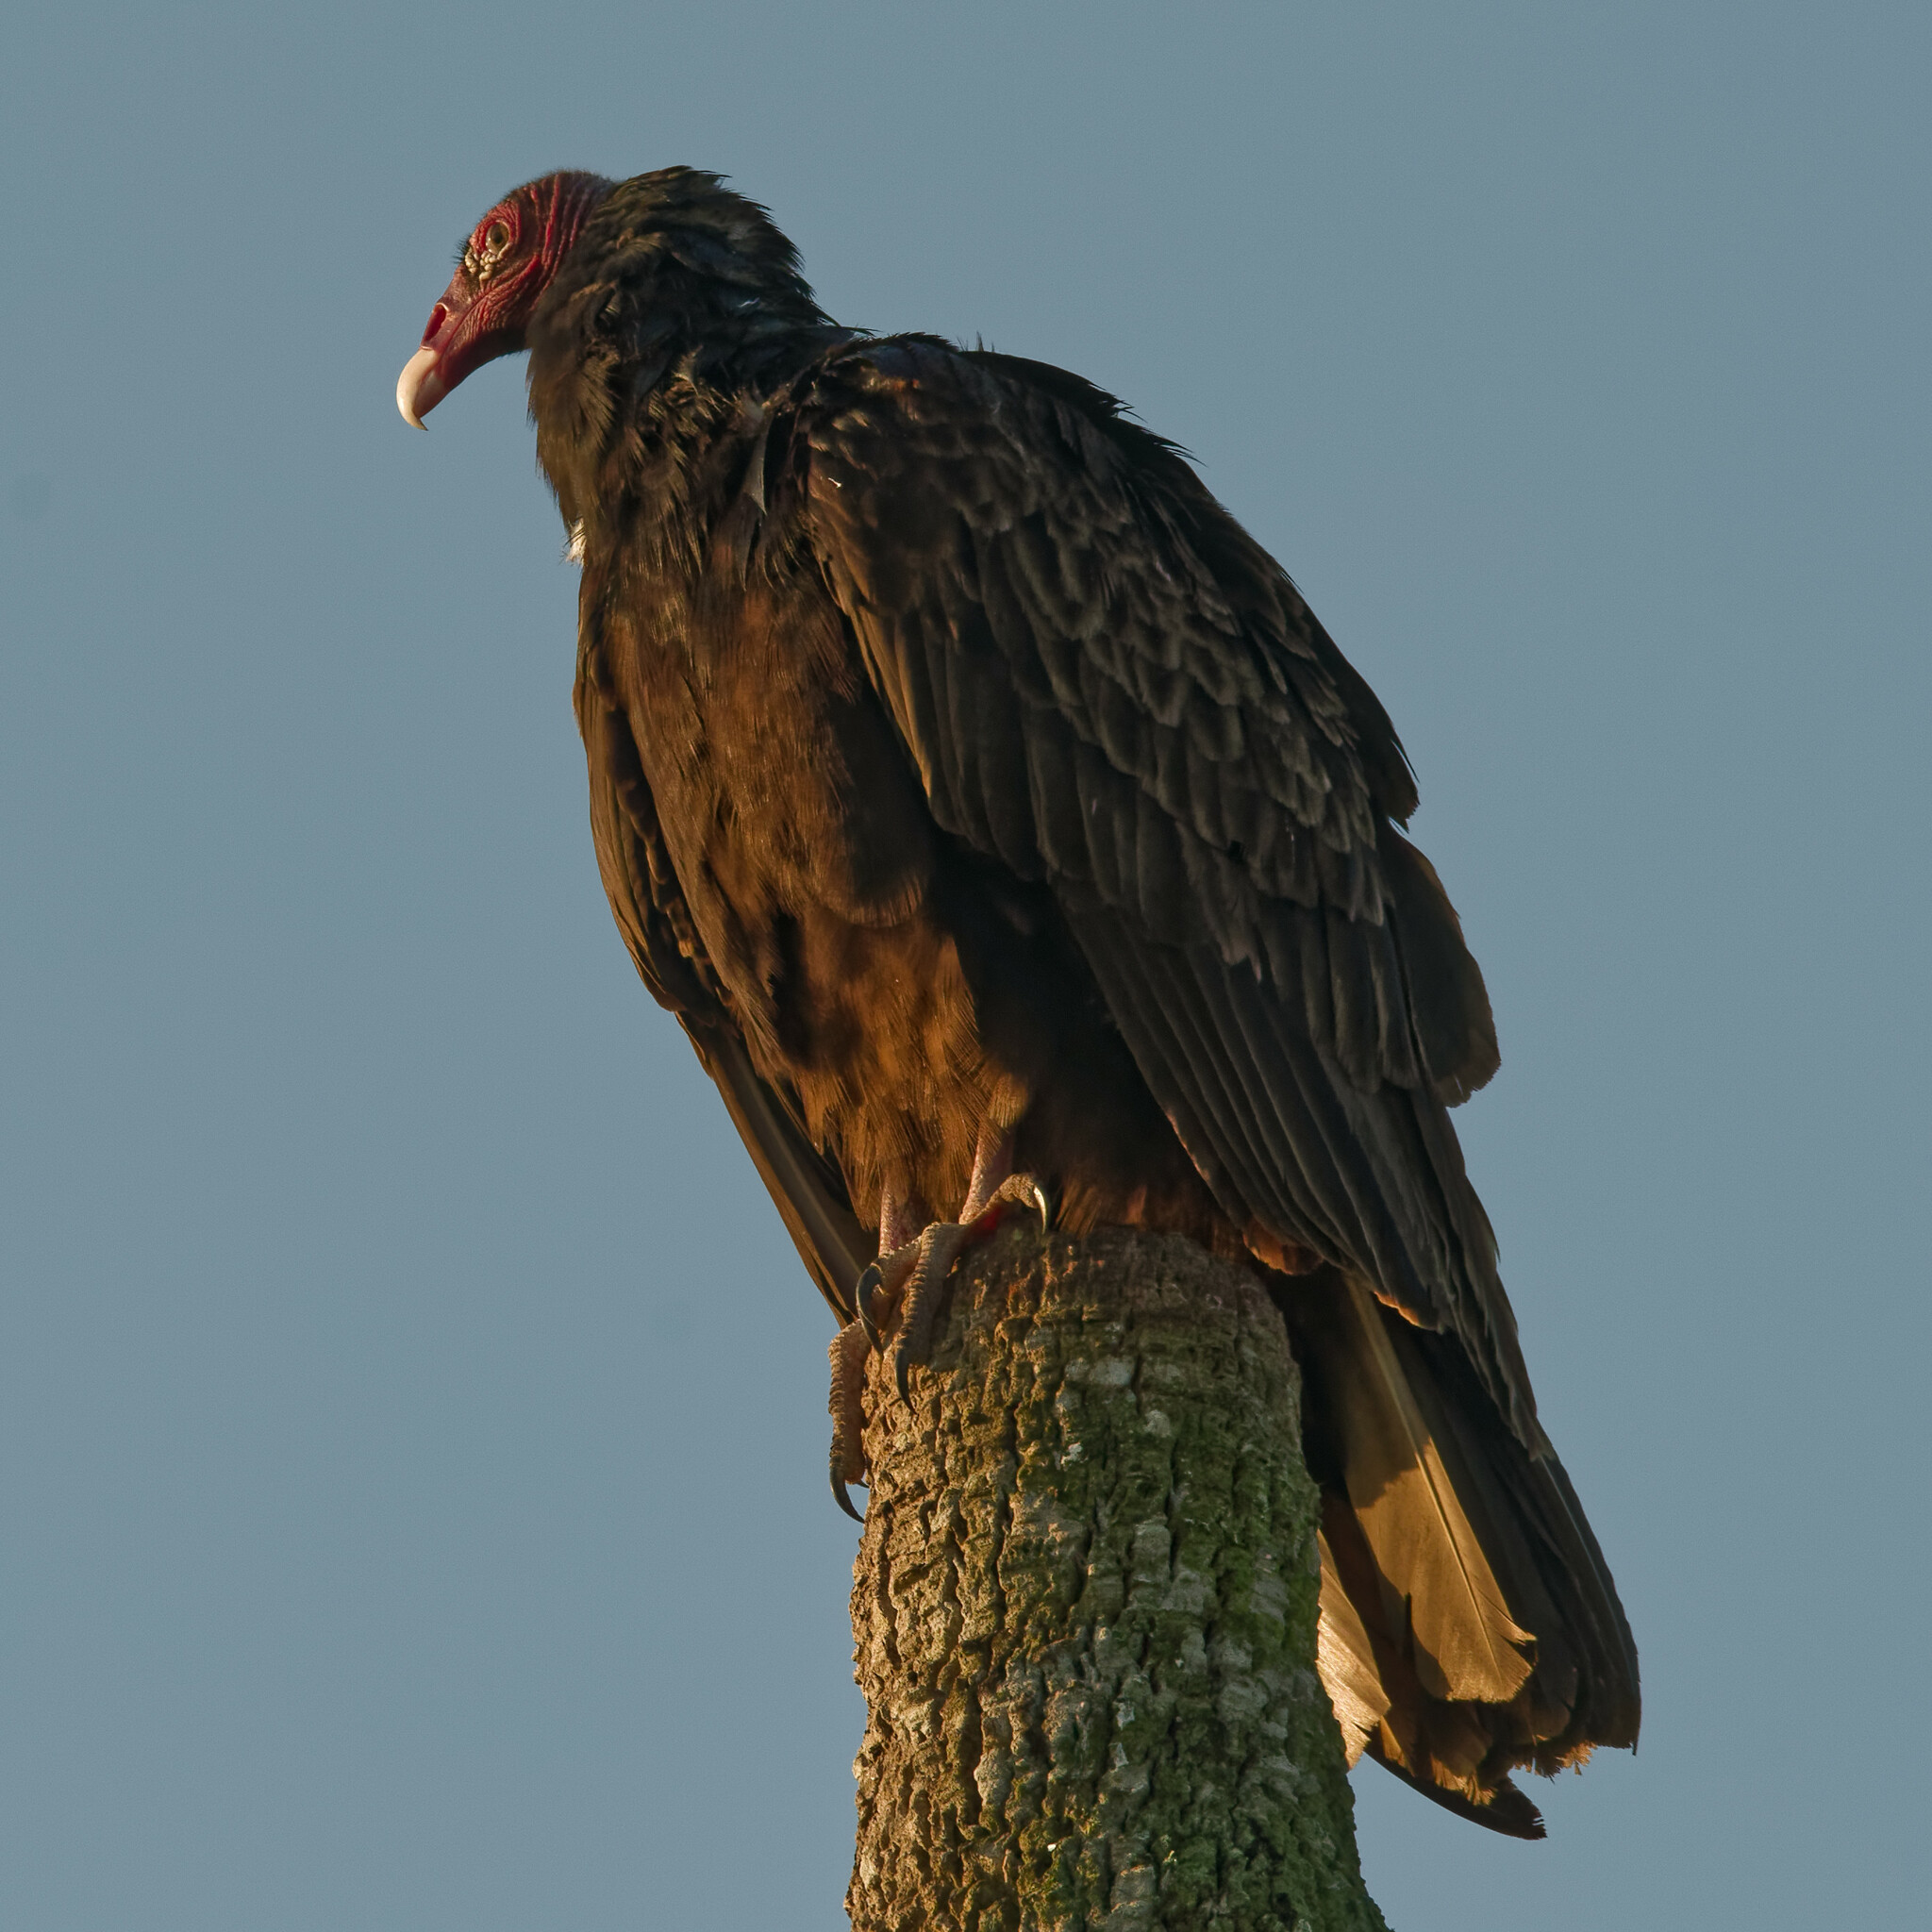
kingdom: Animalia
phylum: Chordata
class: Aves
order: Accipitriformes
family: Cathartidae
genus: Cathartes
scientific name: Cathartes aura
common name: Turkey vulture
